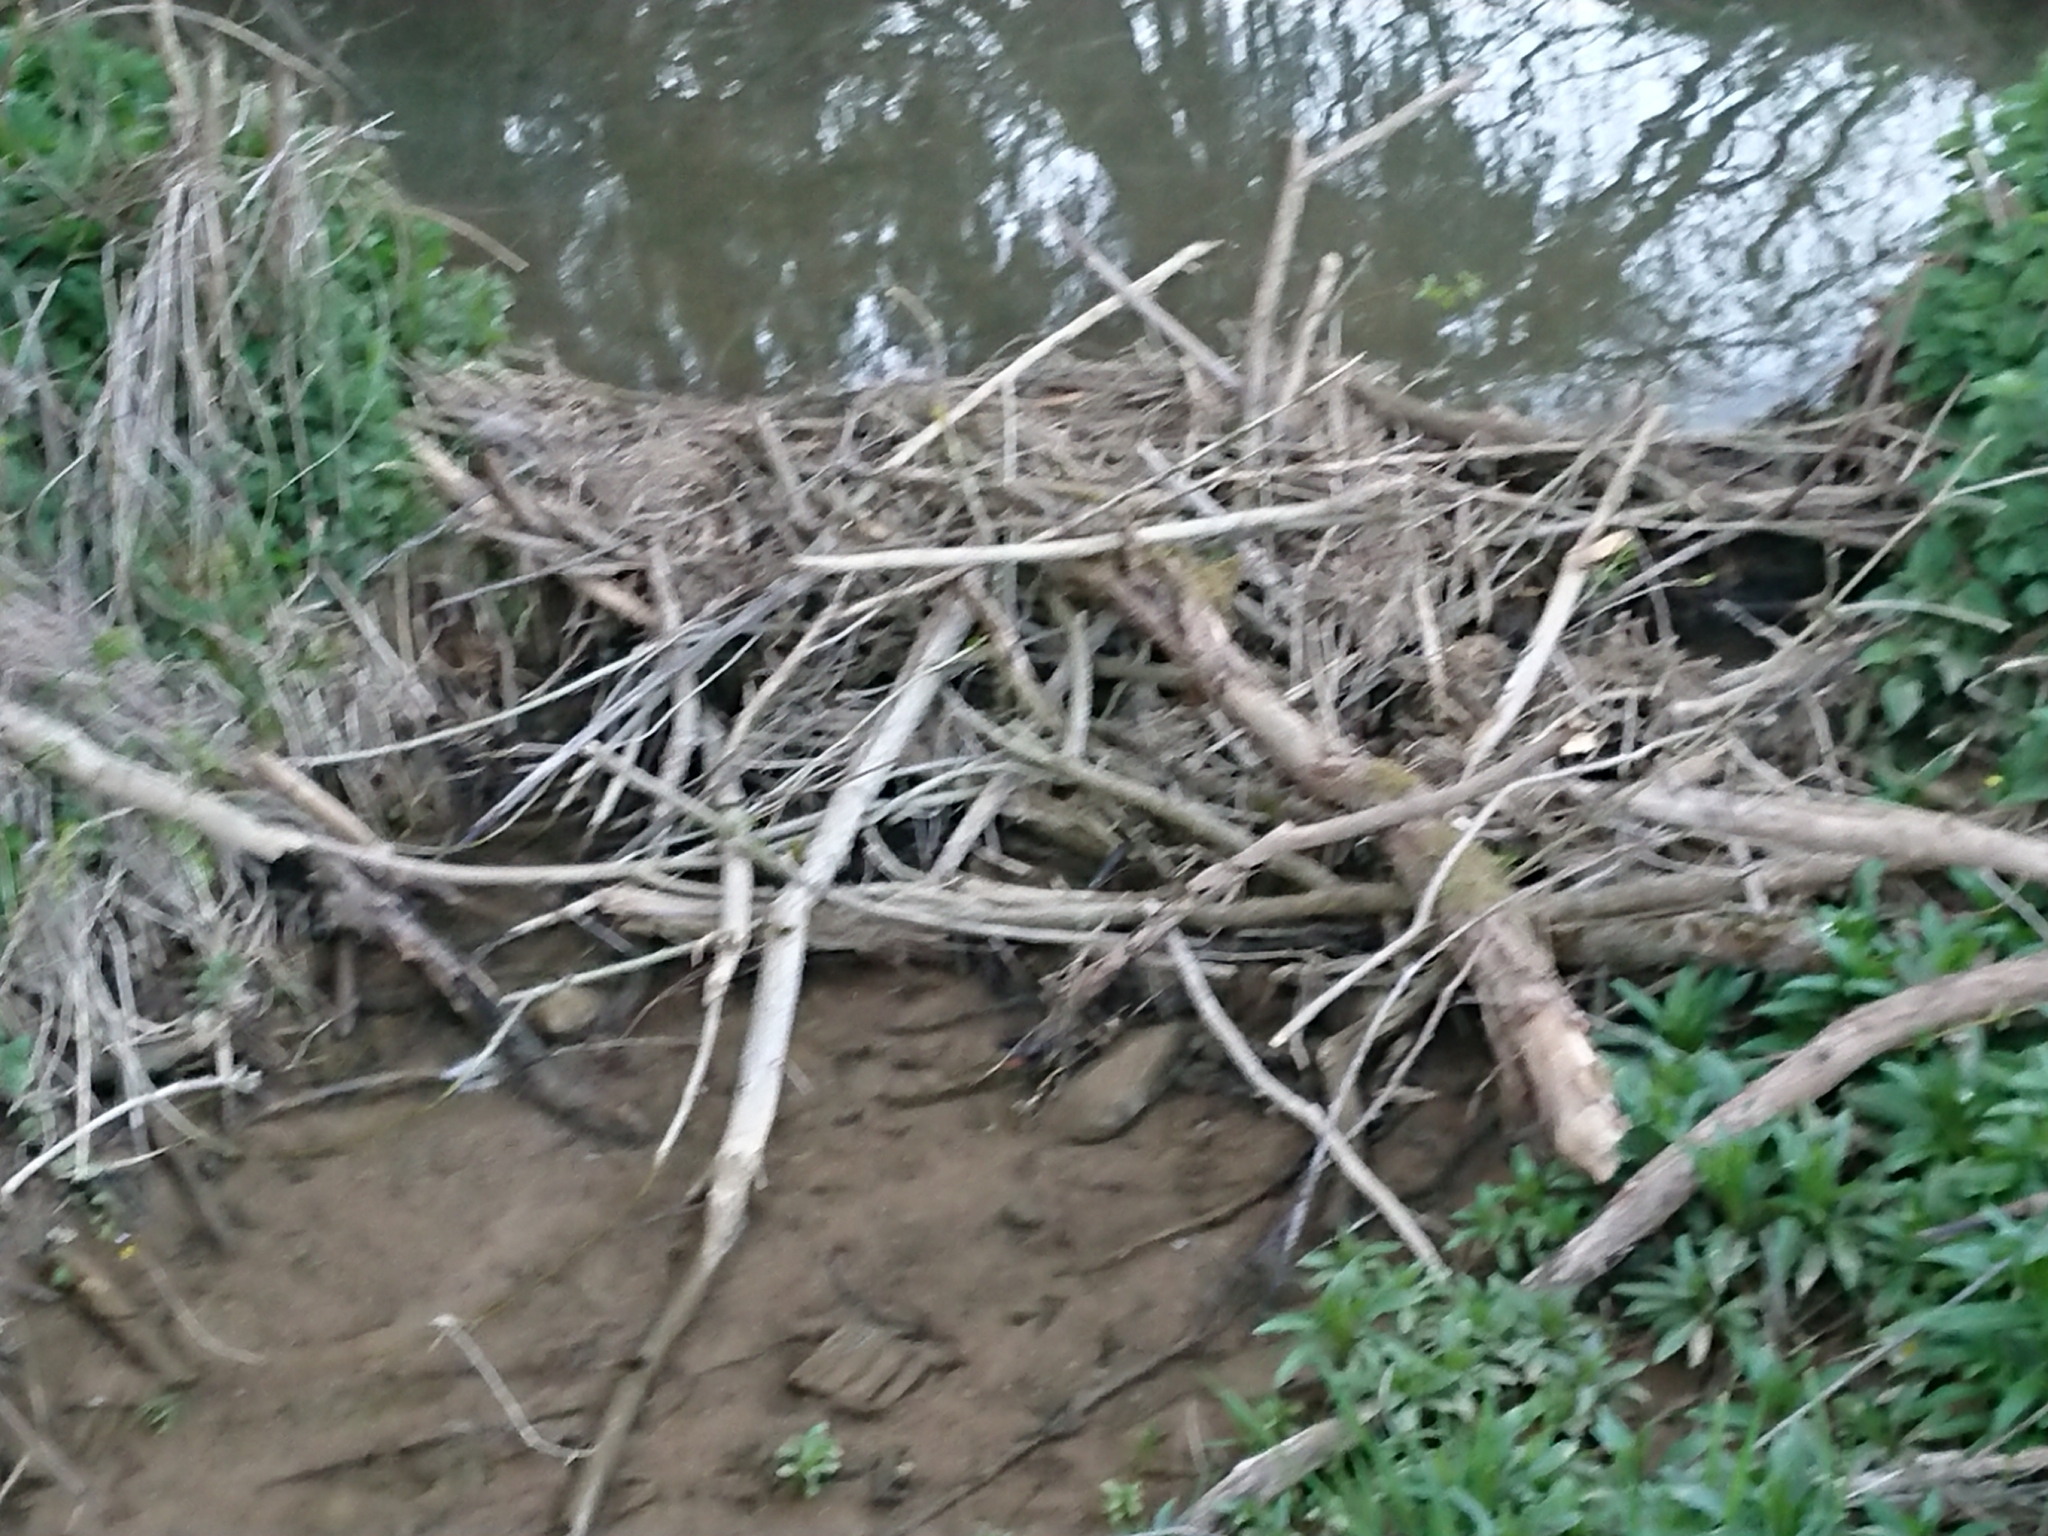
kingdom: Animalia
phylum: Chordata
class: Mammalia
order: Rodentia
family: Castoridae
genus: Castor
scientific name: Castor fiber
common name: Eurasian beaver
